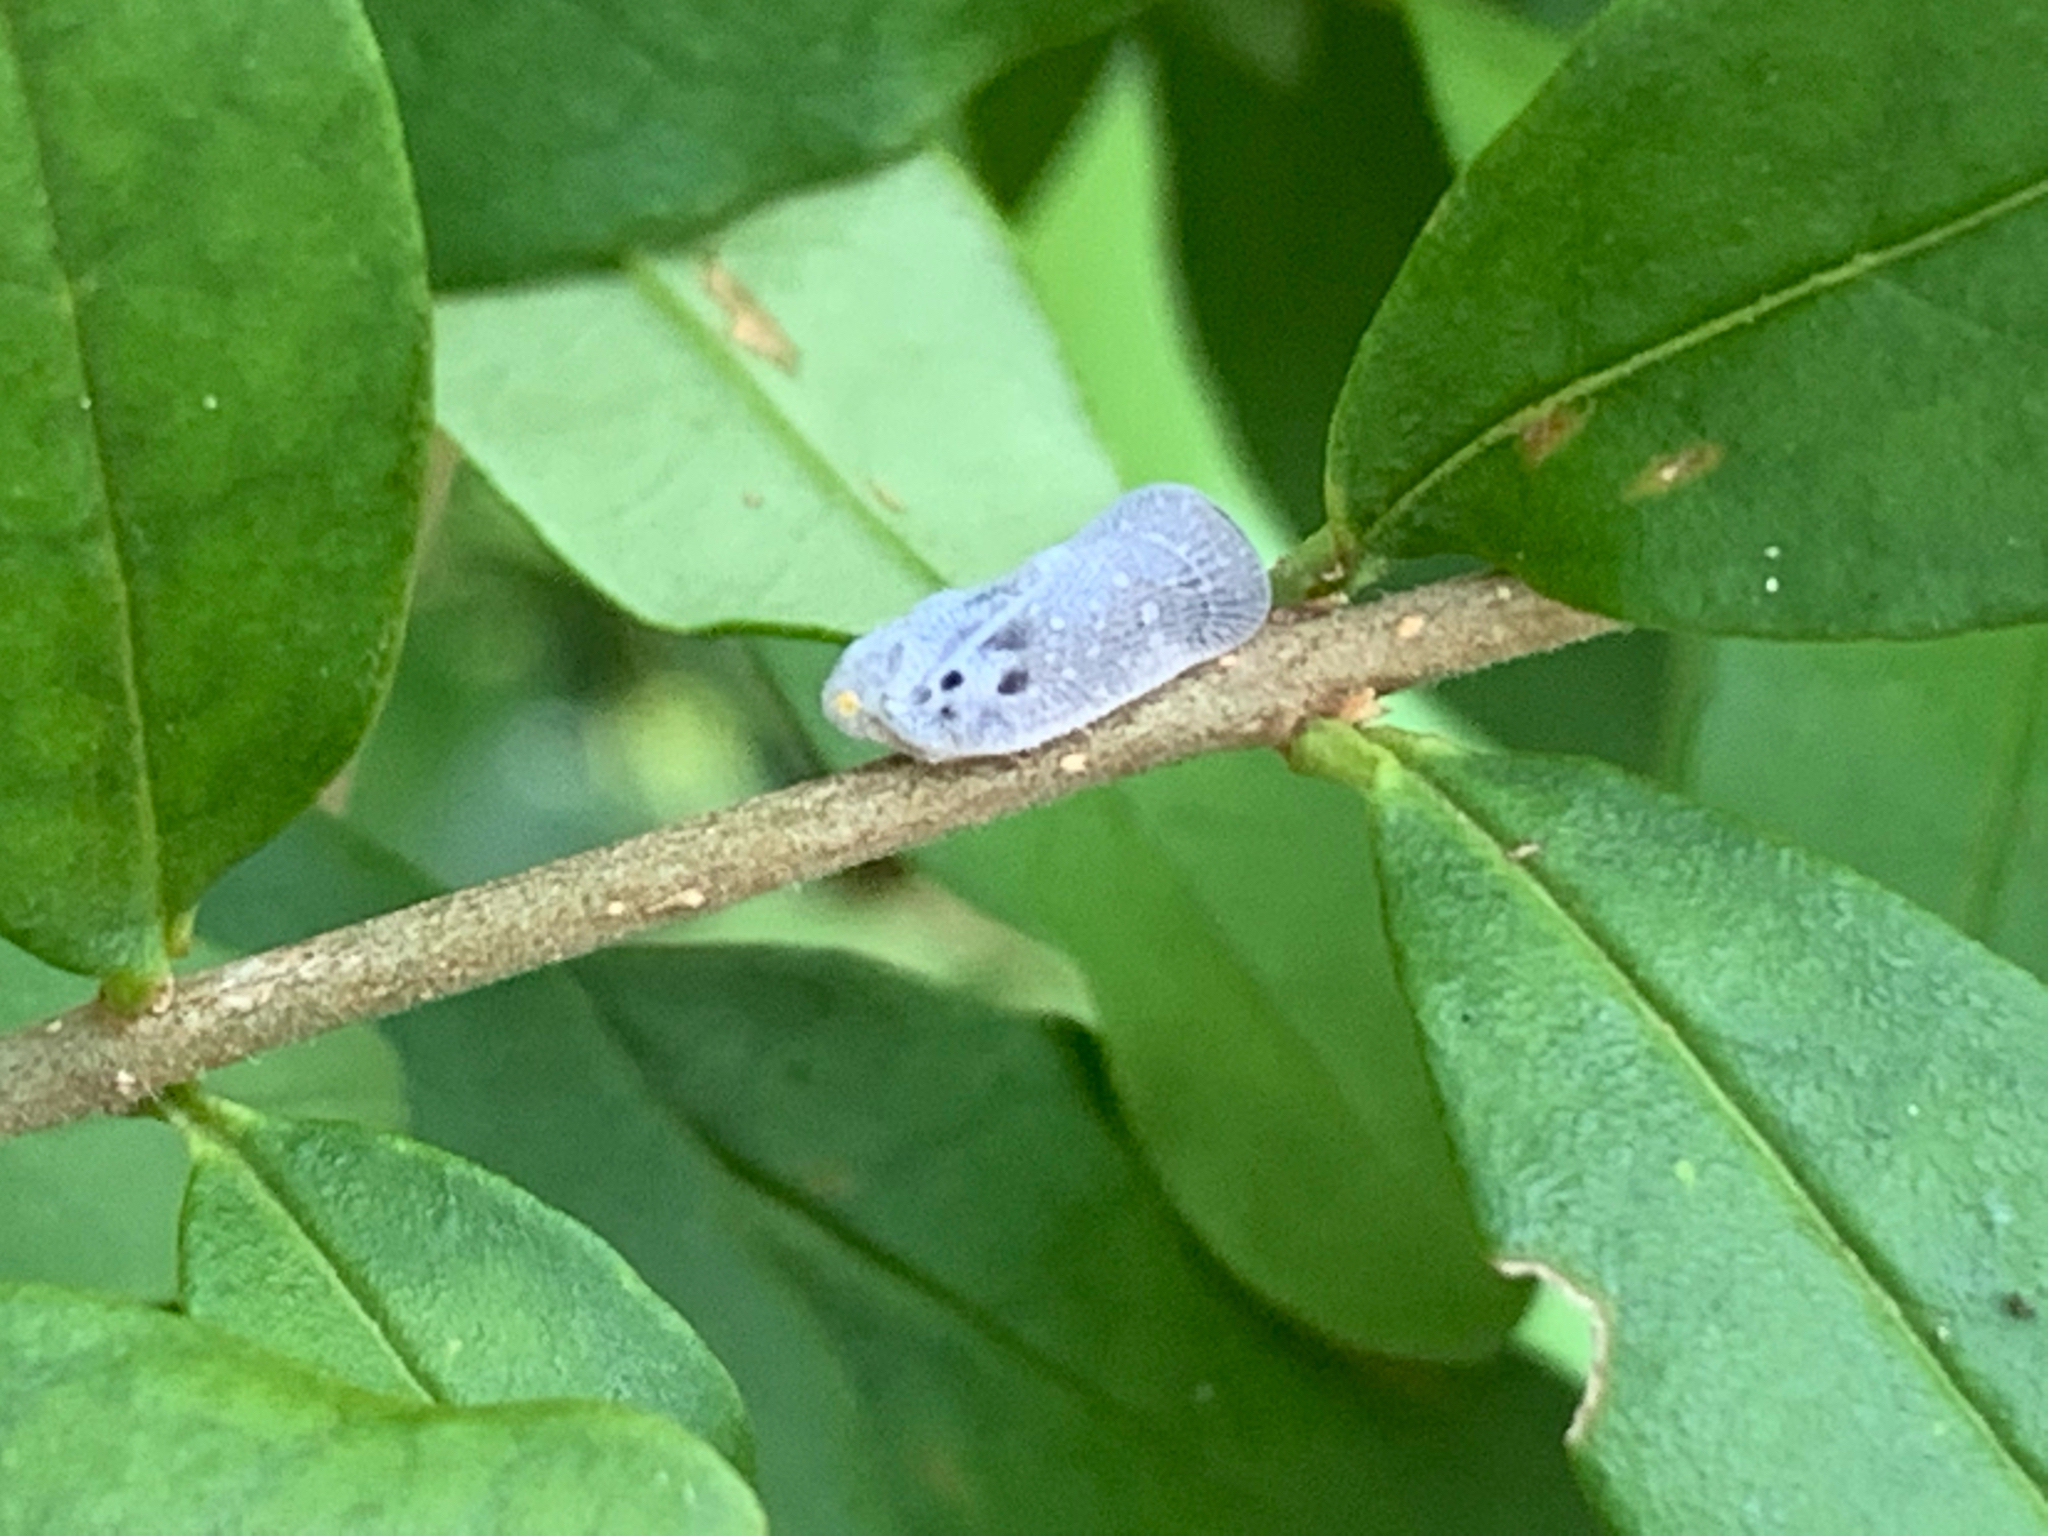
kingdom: Animalia
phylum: Arthropoda
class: Insecta
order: Hemiptera
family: Flatidae
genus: Metcalfa
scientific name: Metcalfa pruinosa
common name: Citrus flatid planthopper
